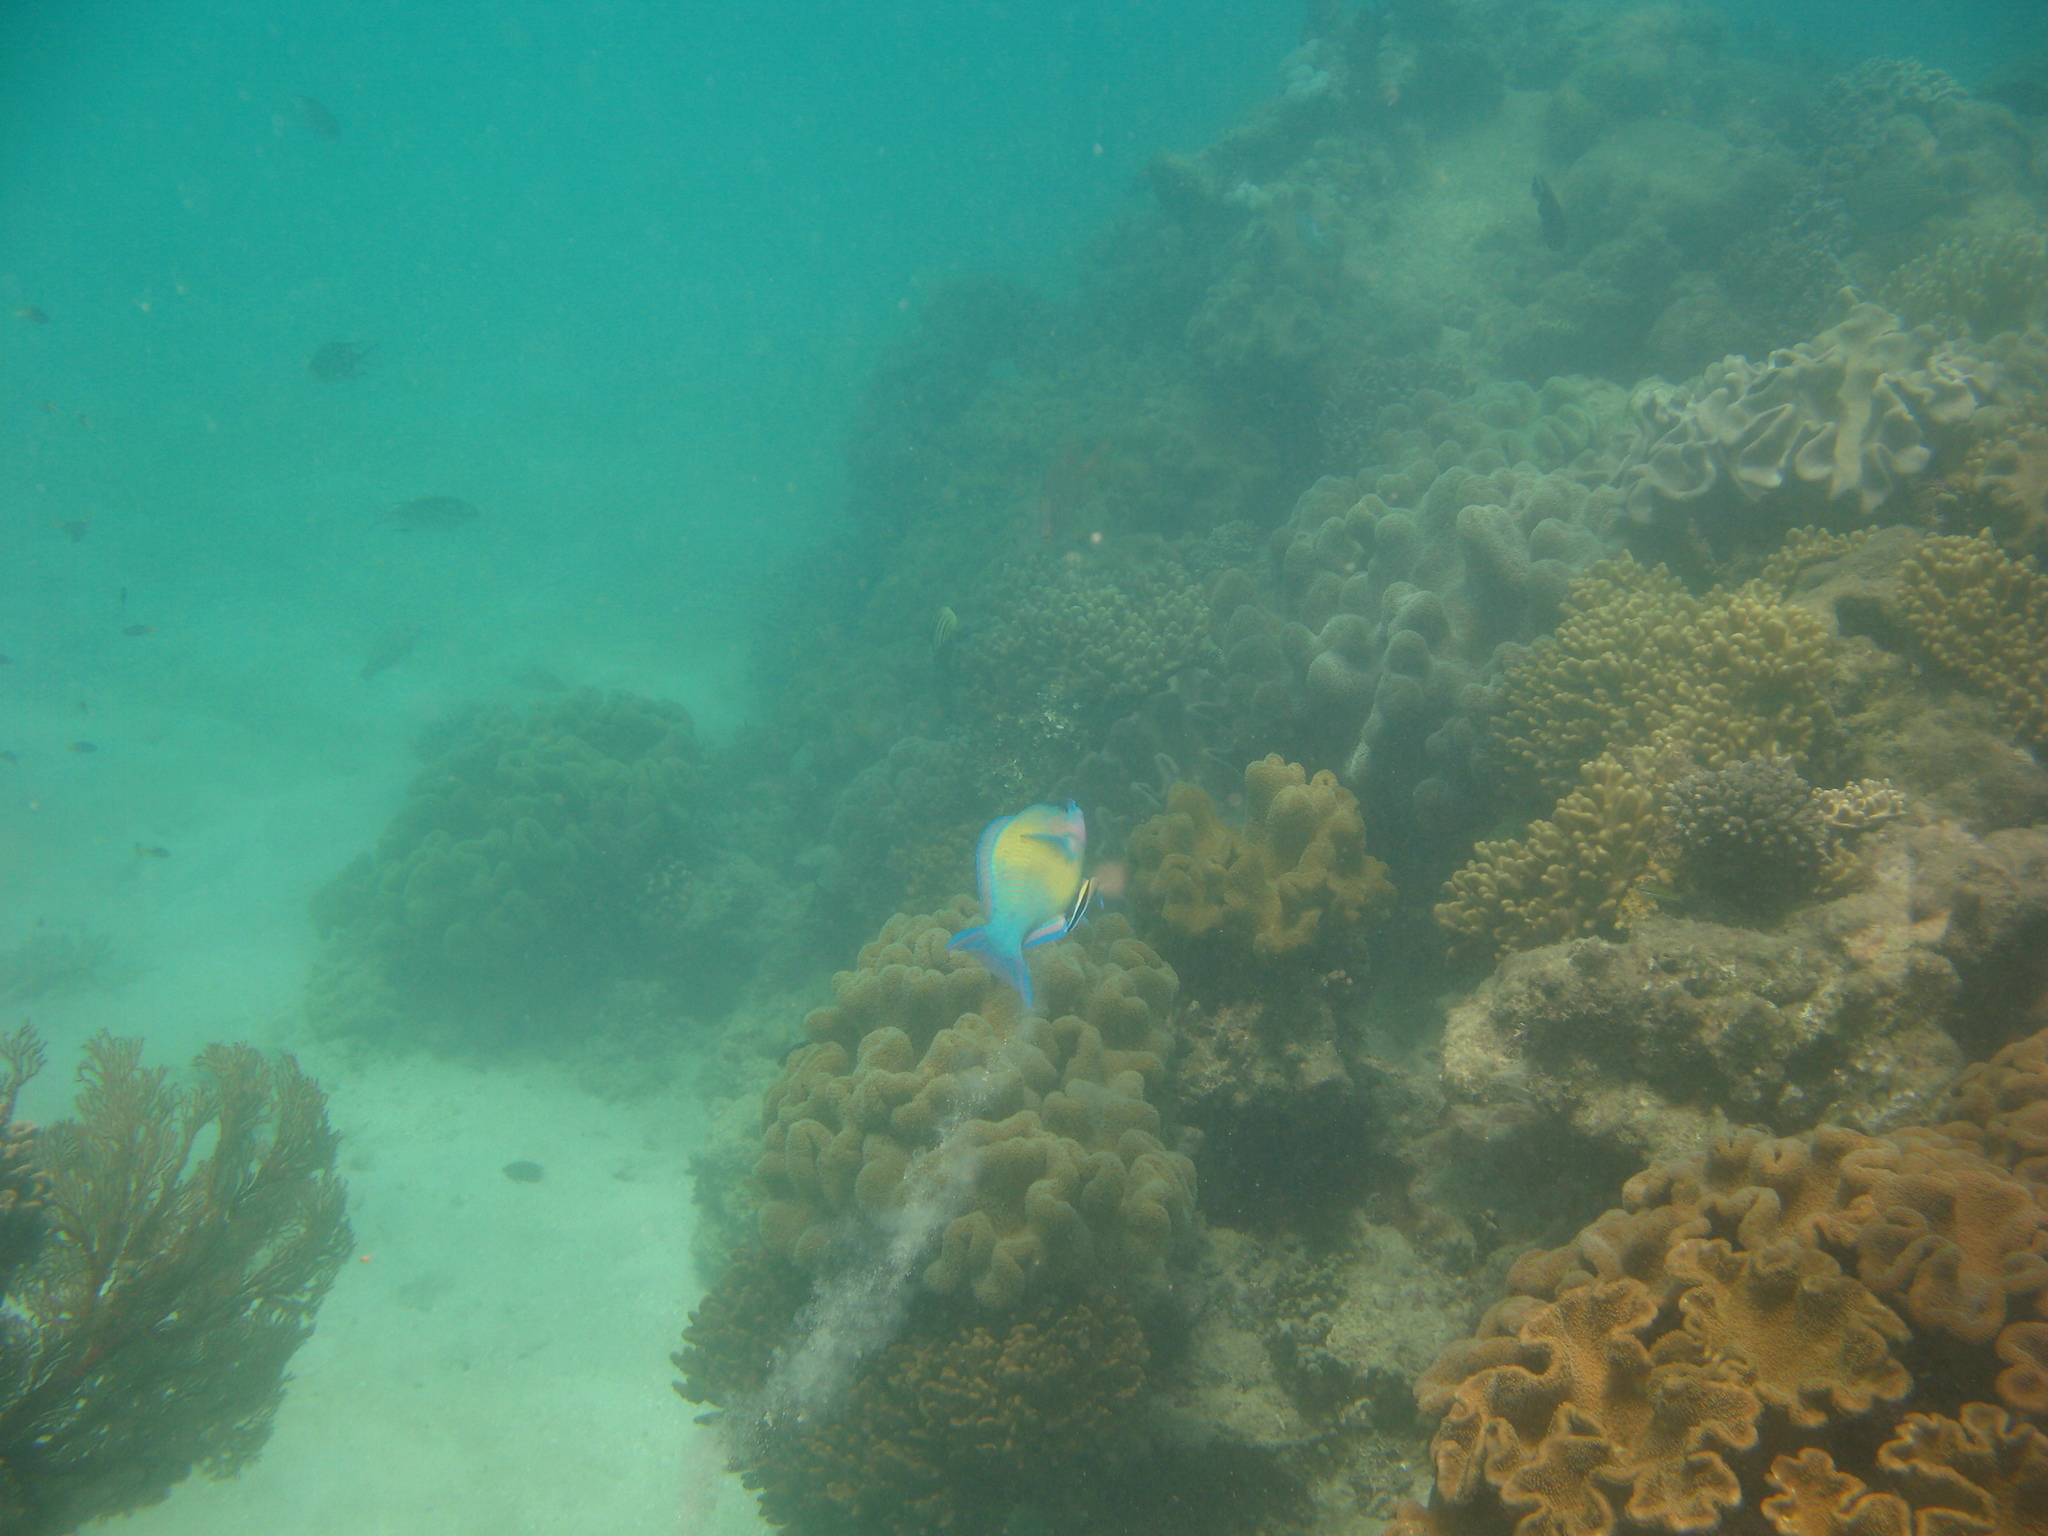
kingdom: Animalia
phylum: Chordata
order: Perciformes
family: Scaridae
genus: Scarus
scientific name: Scarus psittacus
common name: Palenose parrotfish
